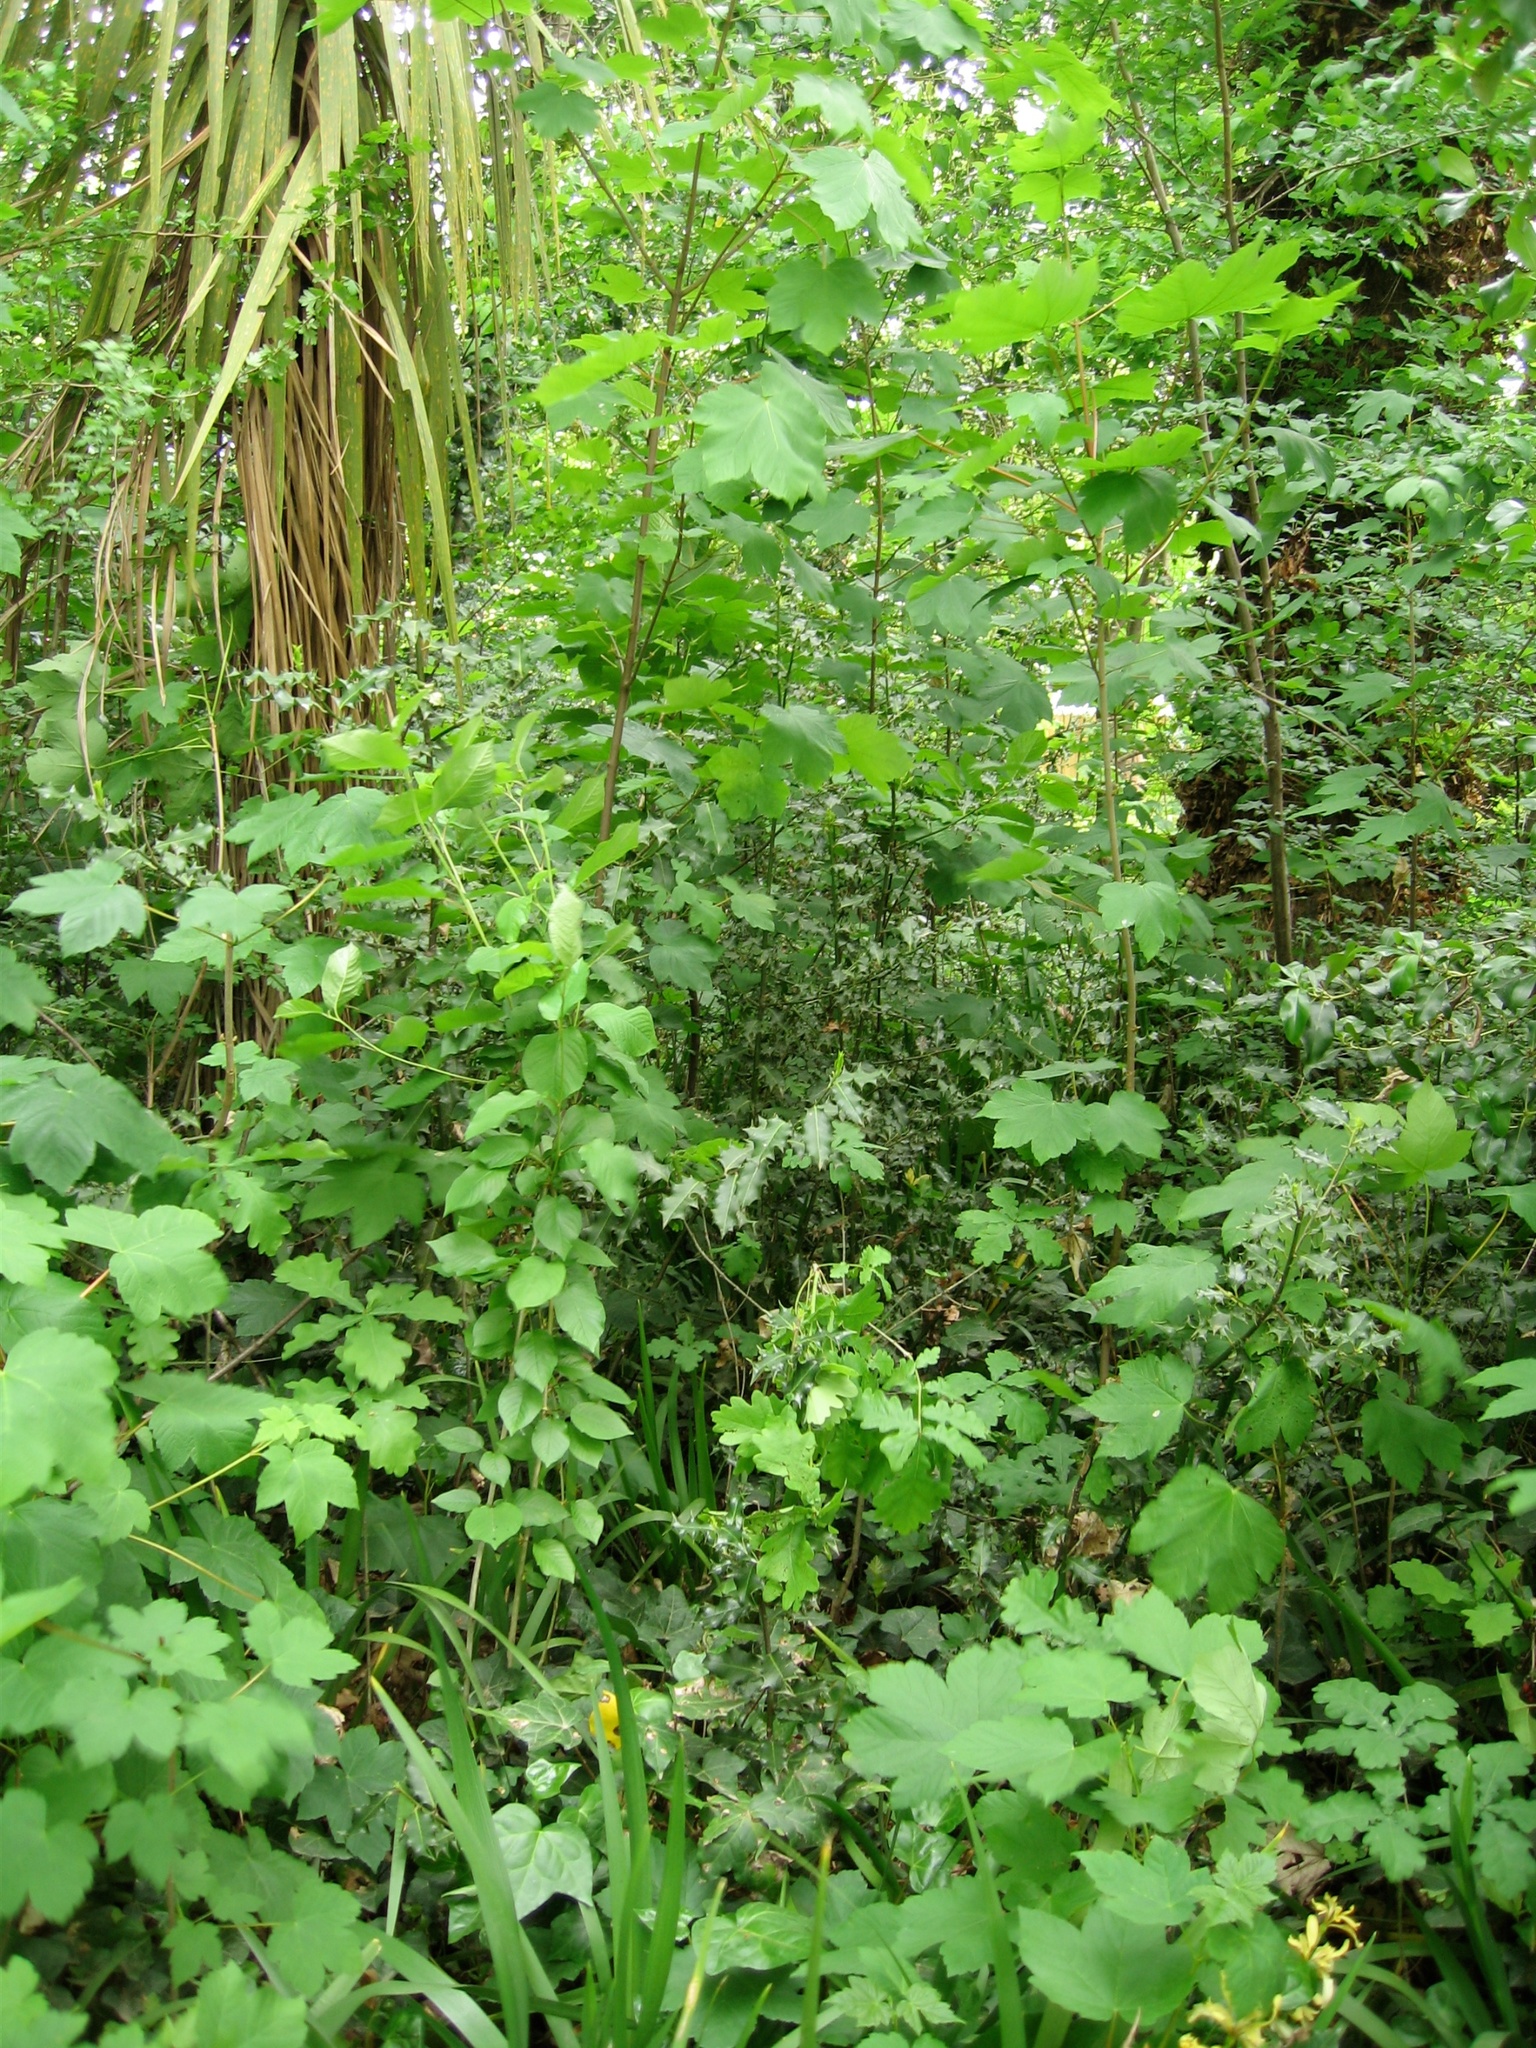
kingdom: Plantae
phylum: Tracheophyta
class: Magnoliopsida
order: Sapindales
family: Sapindaceae
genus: Acer
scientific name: Acer pseudoplatanus
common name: Sycamore
